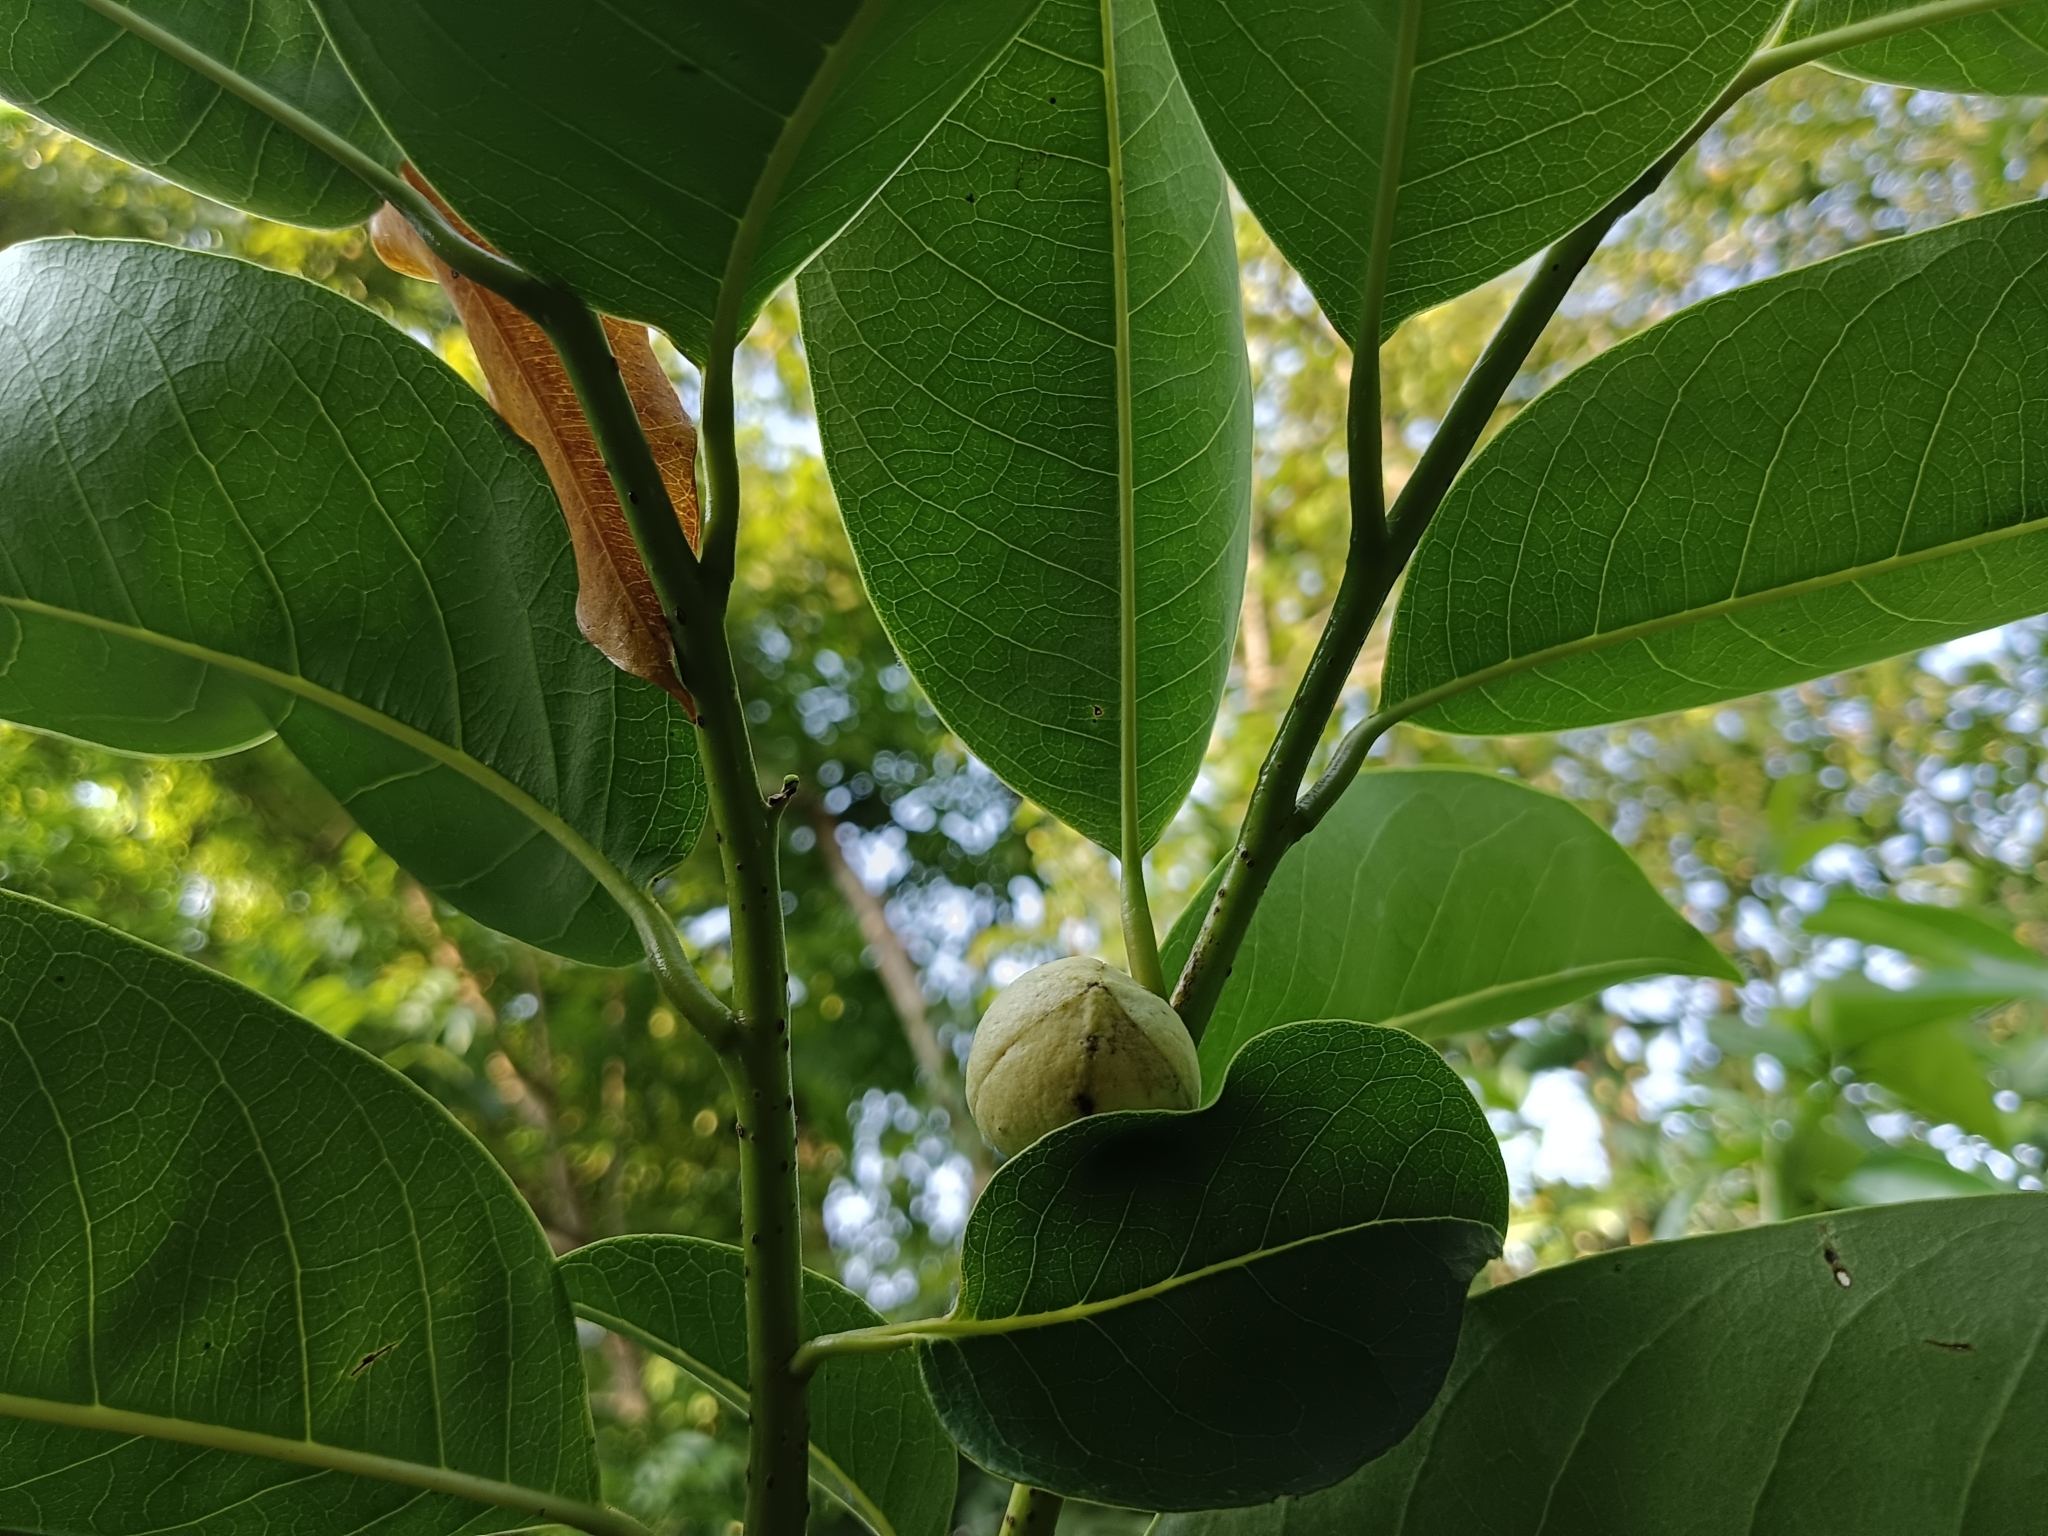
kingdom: Plantae
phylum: Tracheophyta
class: Magnoliopsida
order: Magnoliales
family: Annonaceae
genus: Annona
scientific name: Annona glabra
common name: Monkey apple
